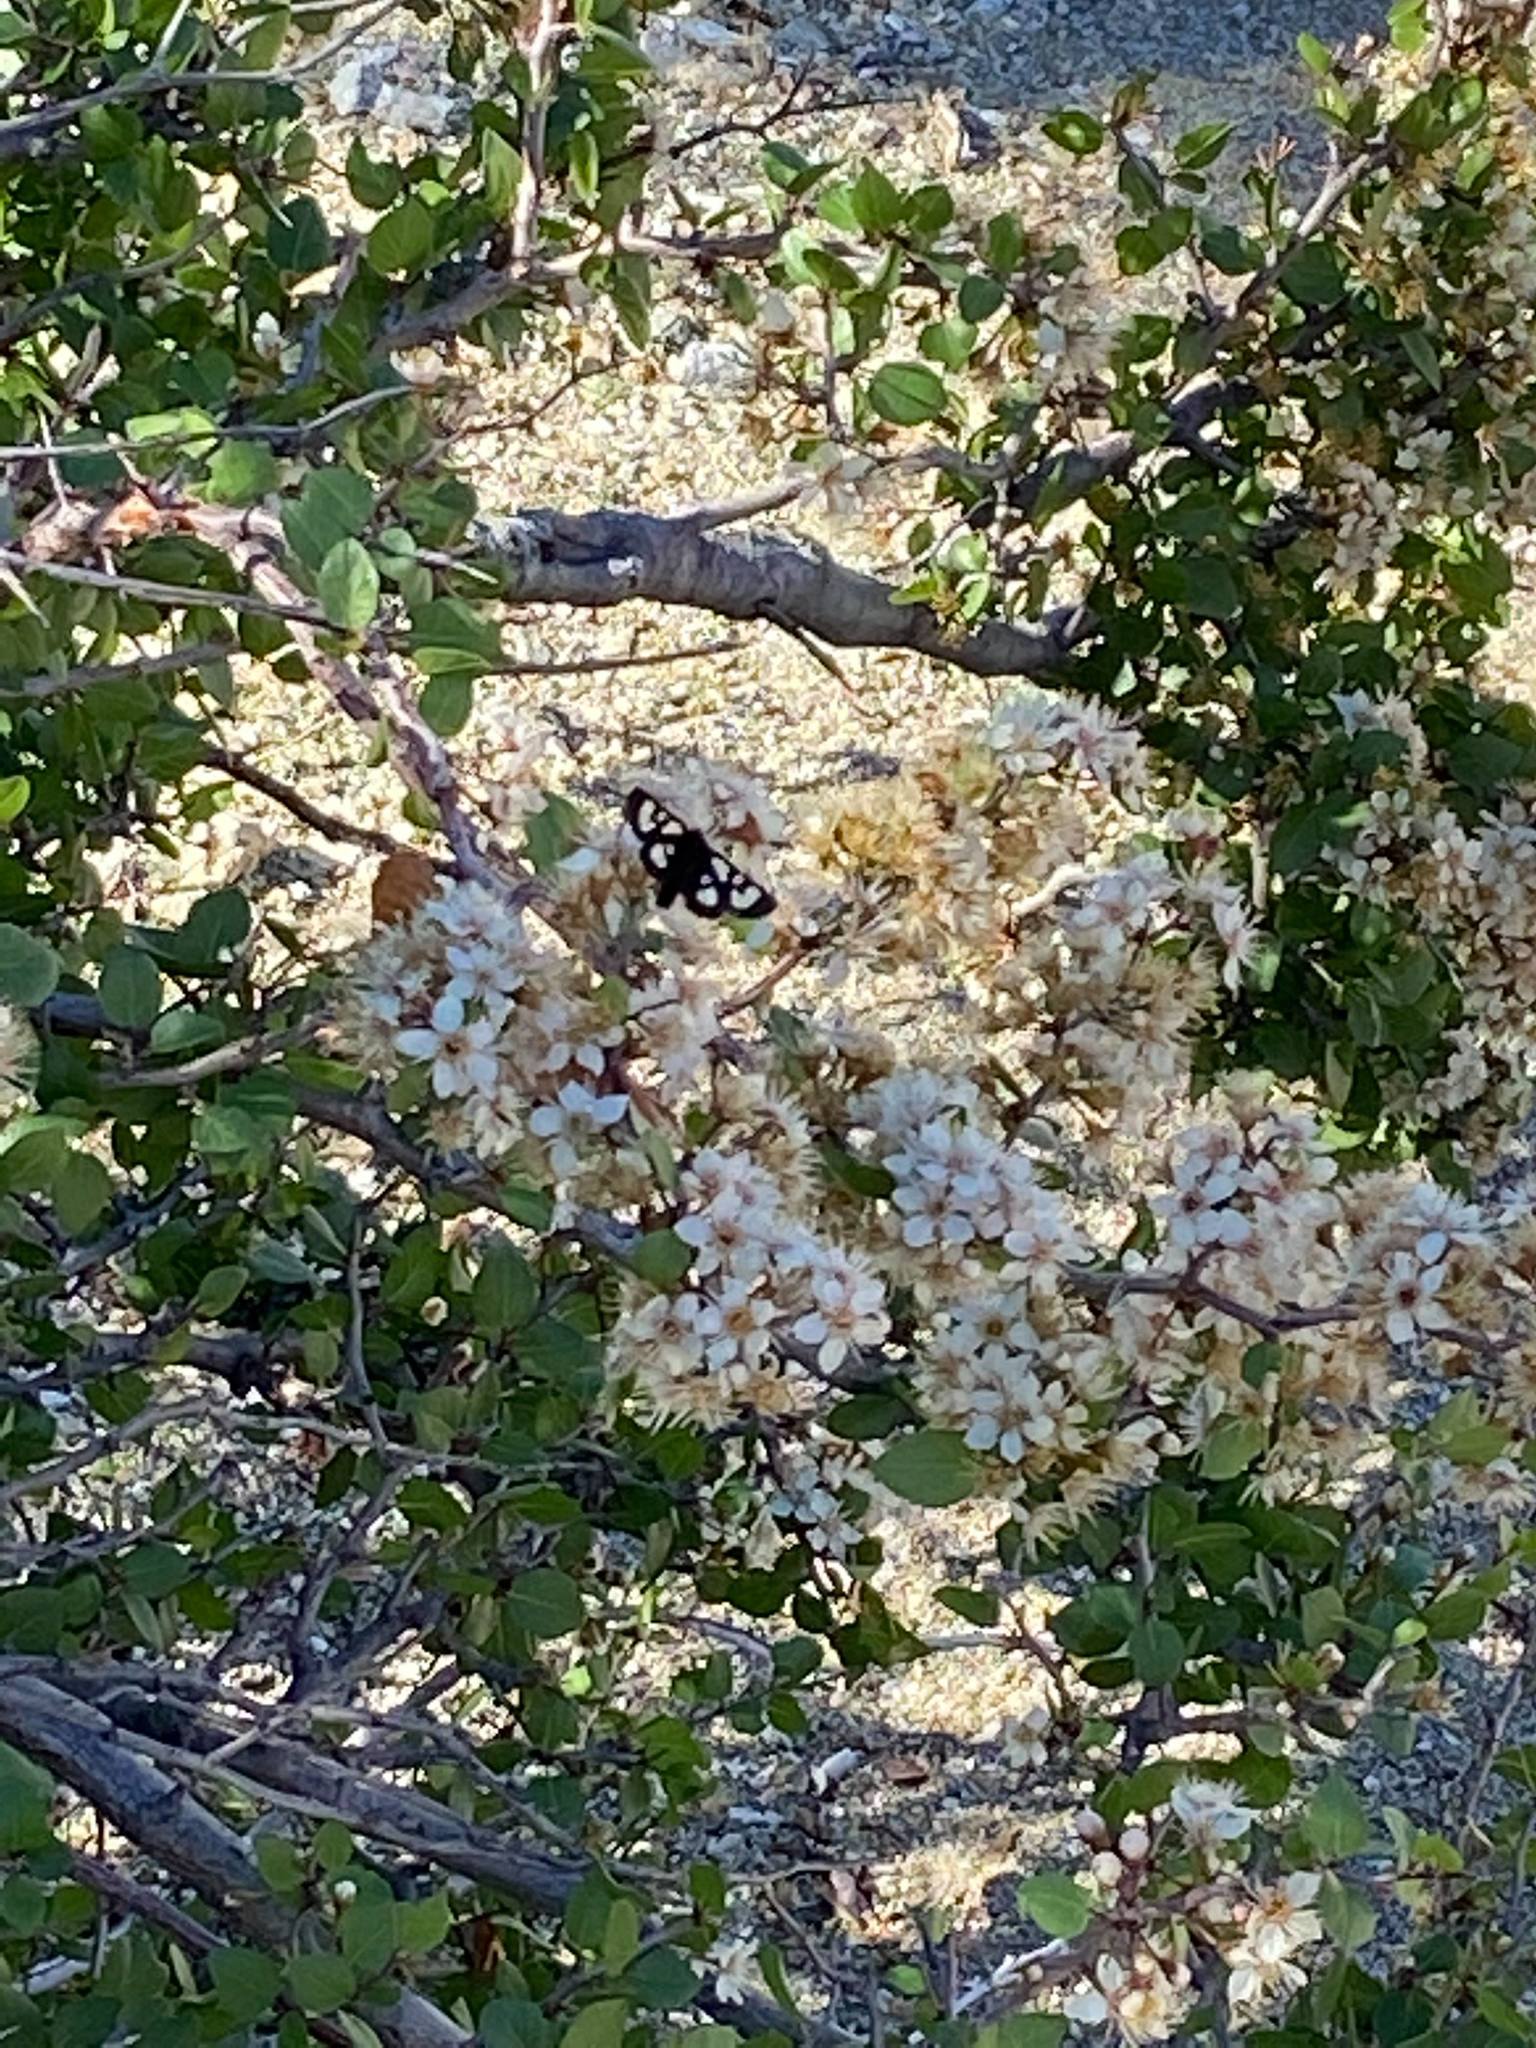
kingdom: Animalia
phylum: Arthropoda
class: Insecta
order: Lepidoptera
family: Noctuidae
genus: Alypia
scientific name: Alypia ridingsii
